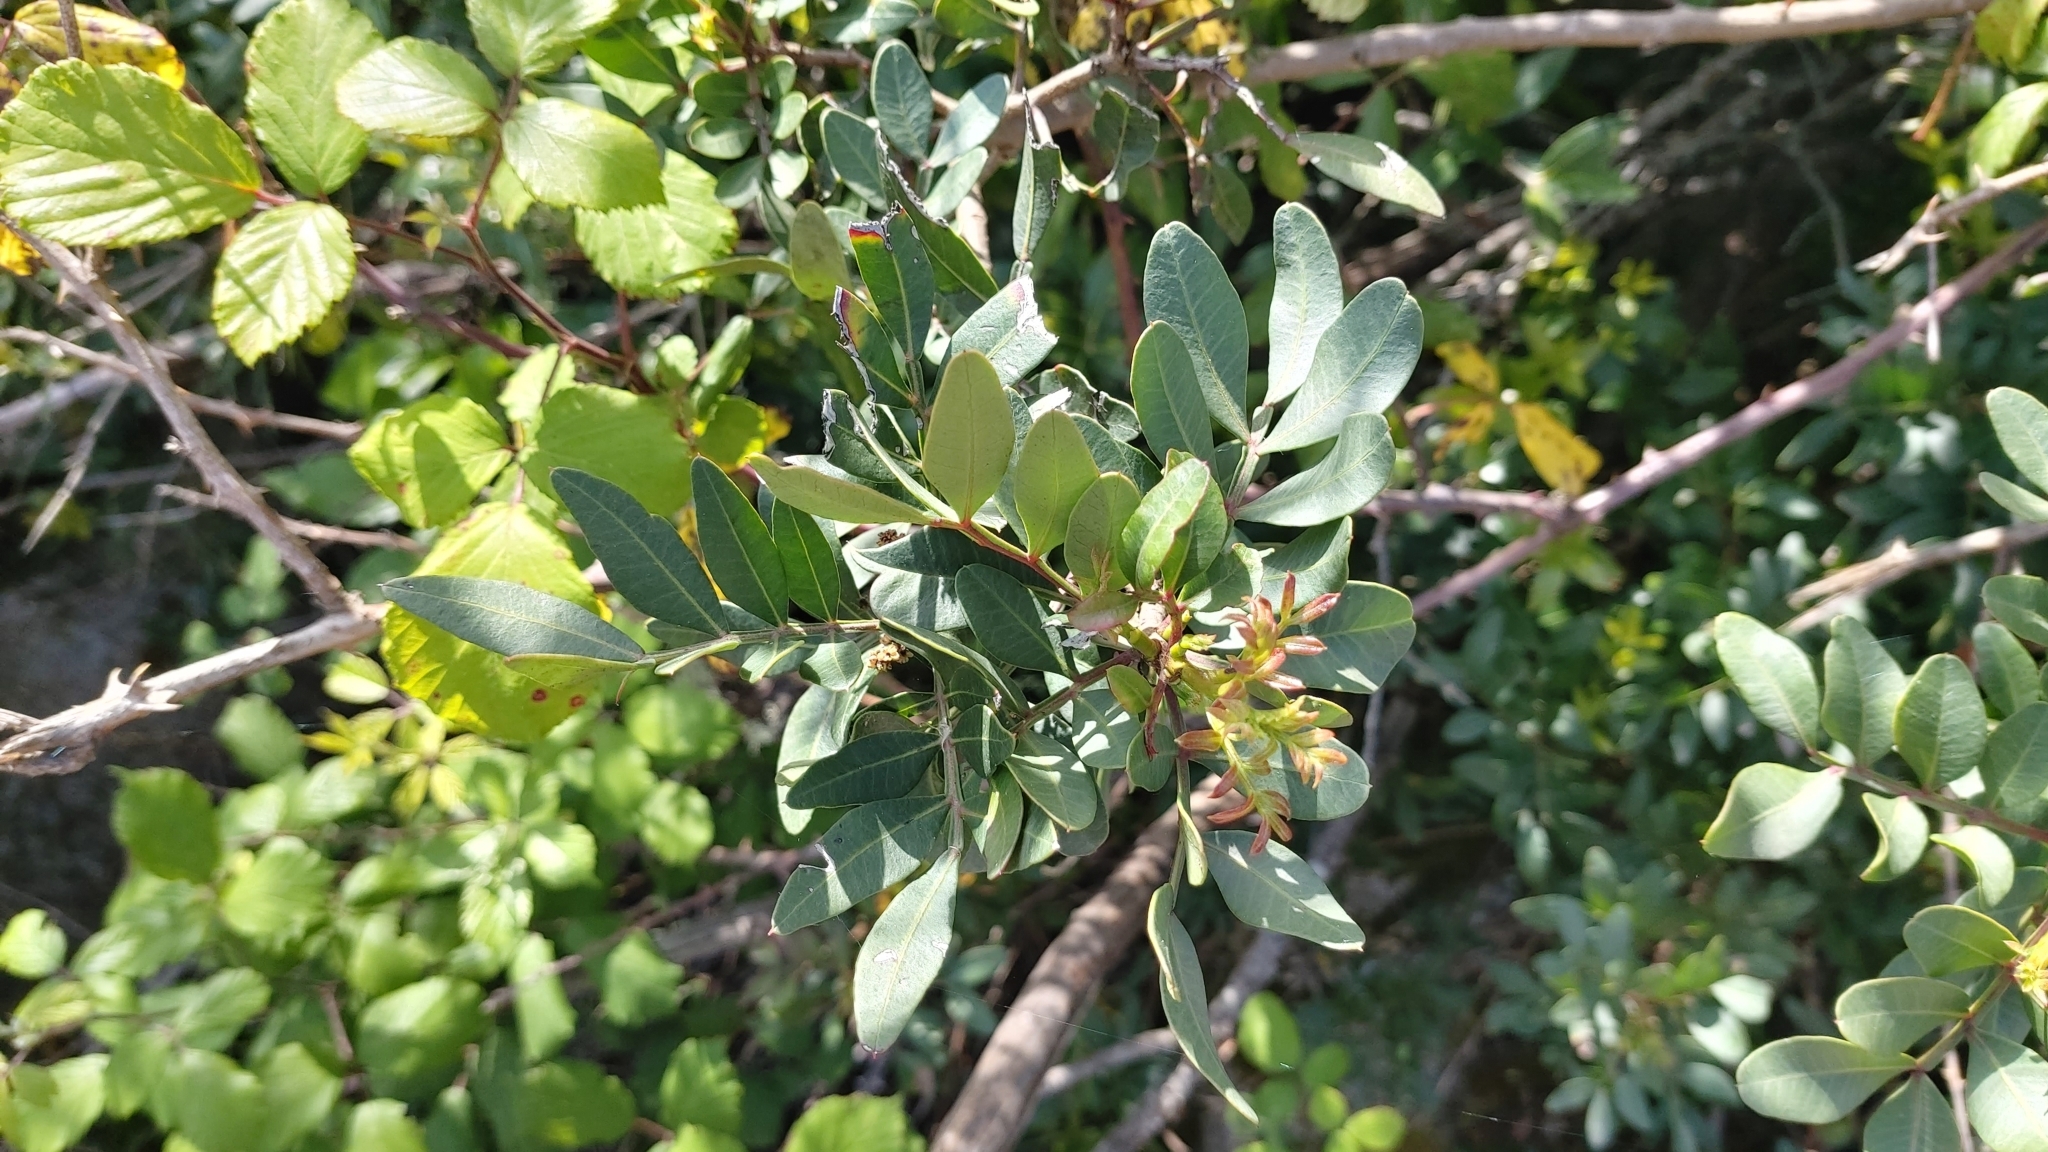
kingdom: Plantae
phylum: Tracheophyta
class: Magnoliopsida
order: Sapindales
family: Anacardiaceae
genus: Pistacia
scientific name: Pistacia lentiscus
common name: Lentisk
